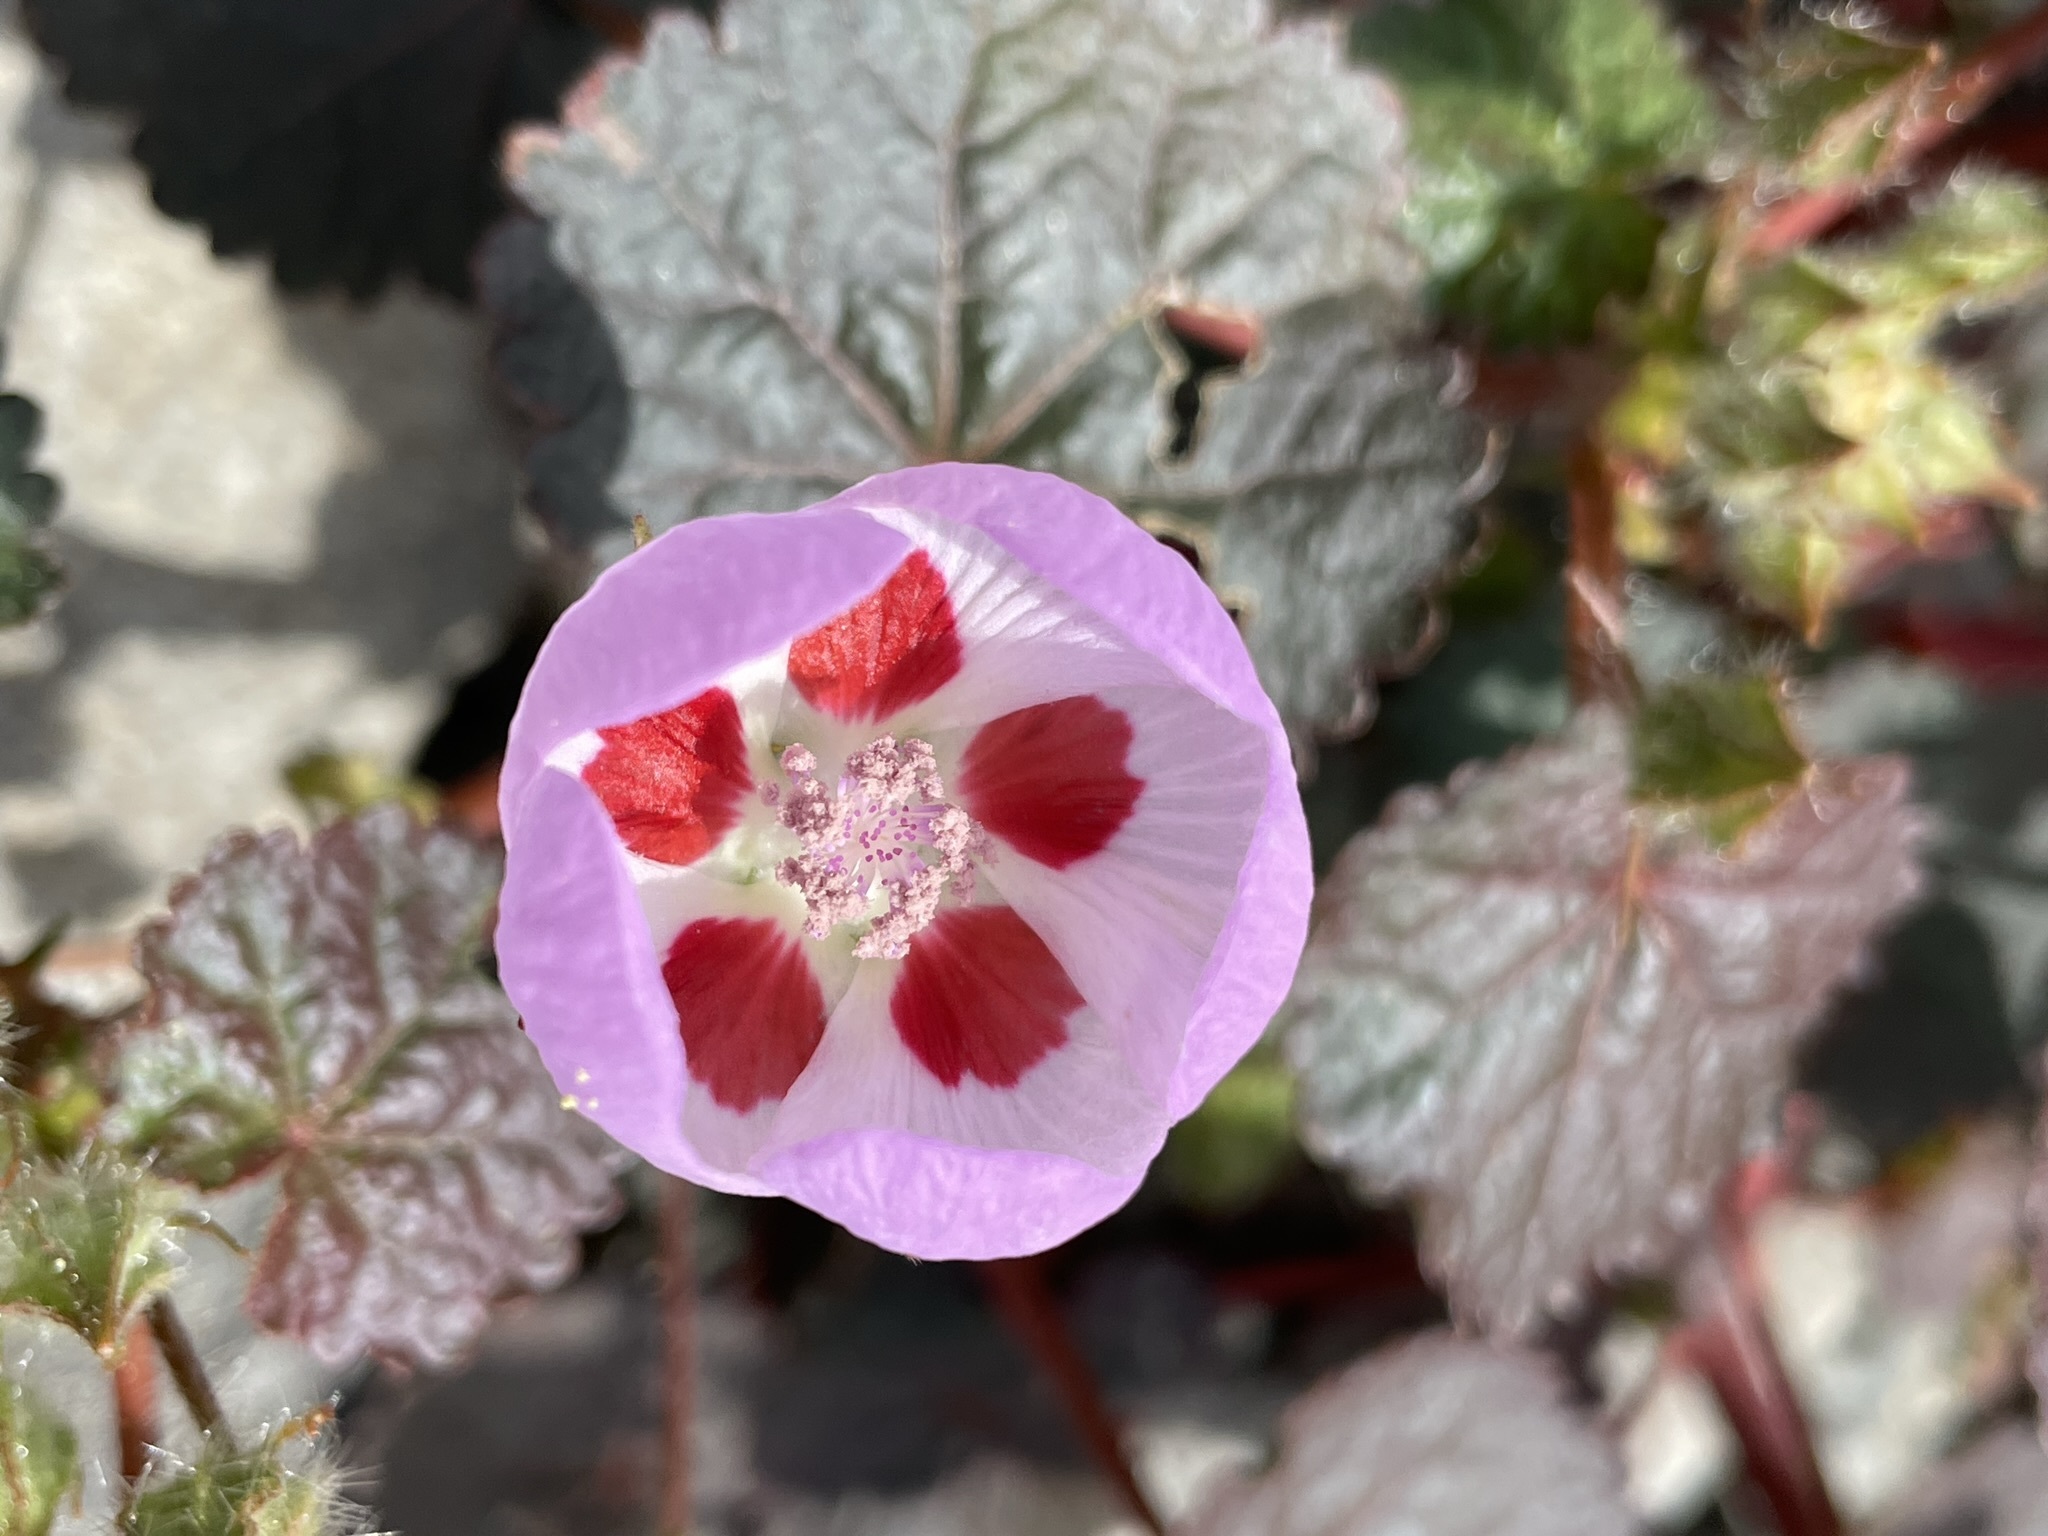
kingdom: Plantae
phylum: Tracheophyta
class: Magnoliopsida
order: Malvales
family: Malvaceae
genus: Eremalche
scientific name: Eremalche rotundifolia
